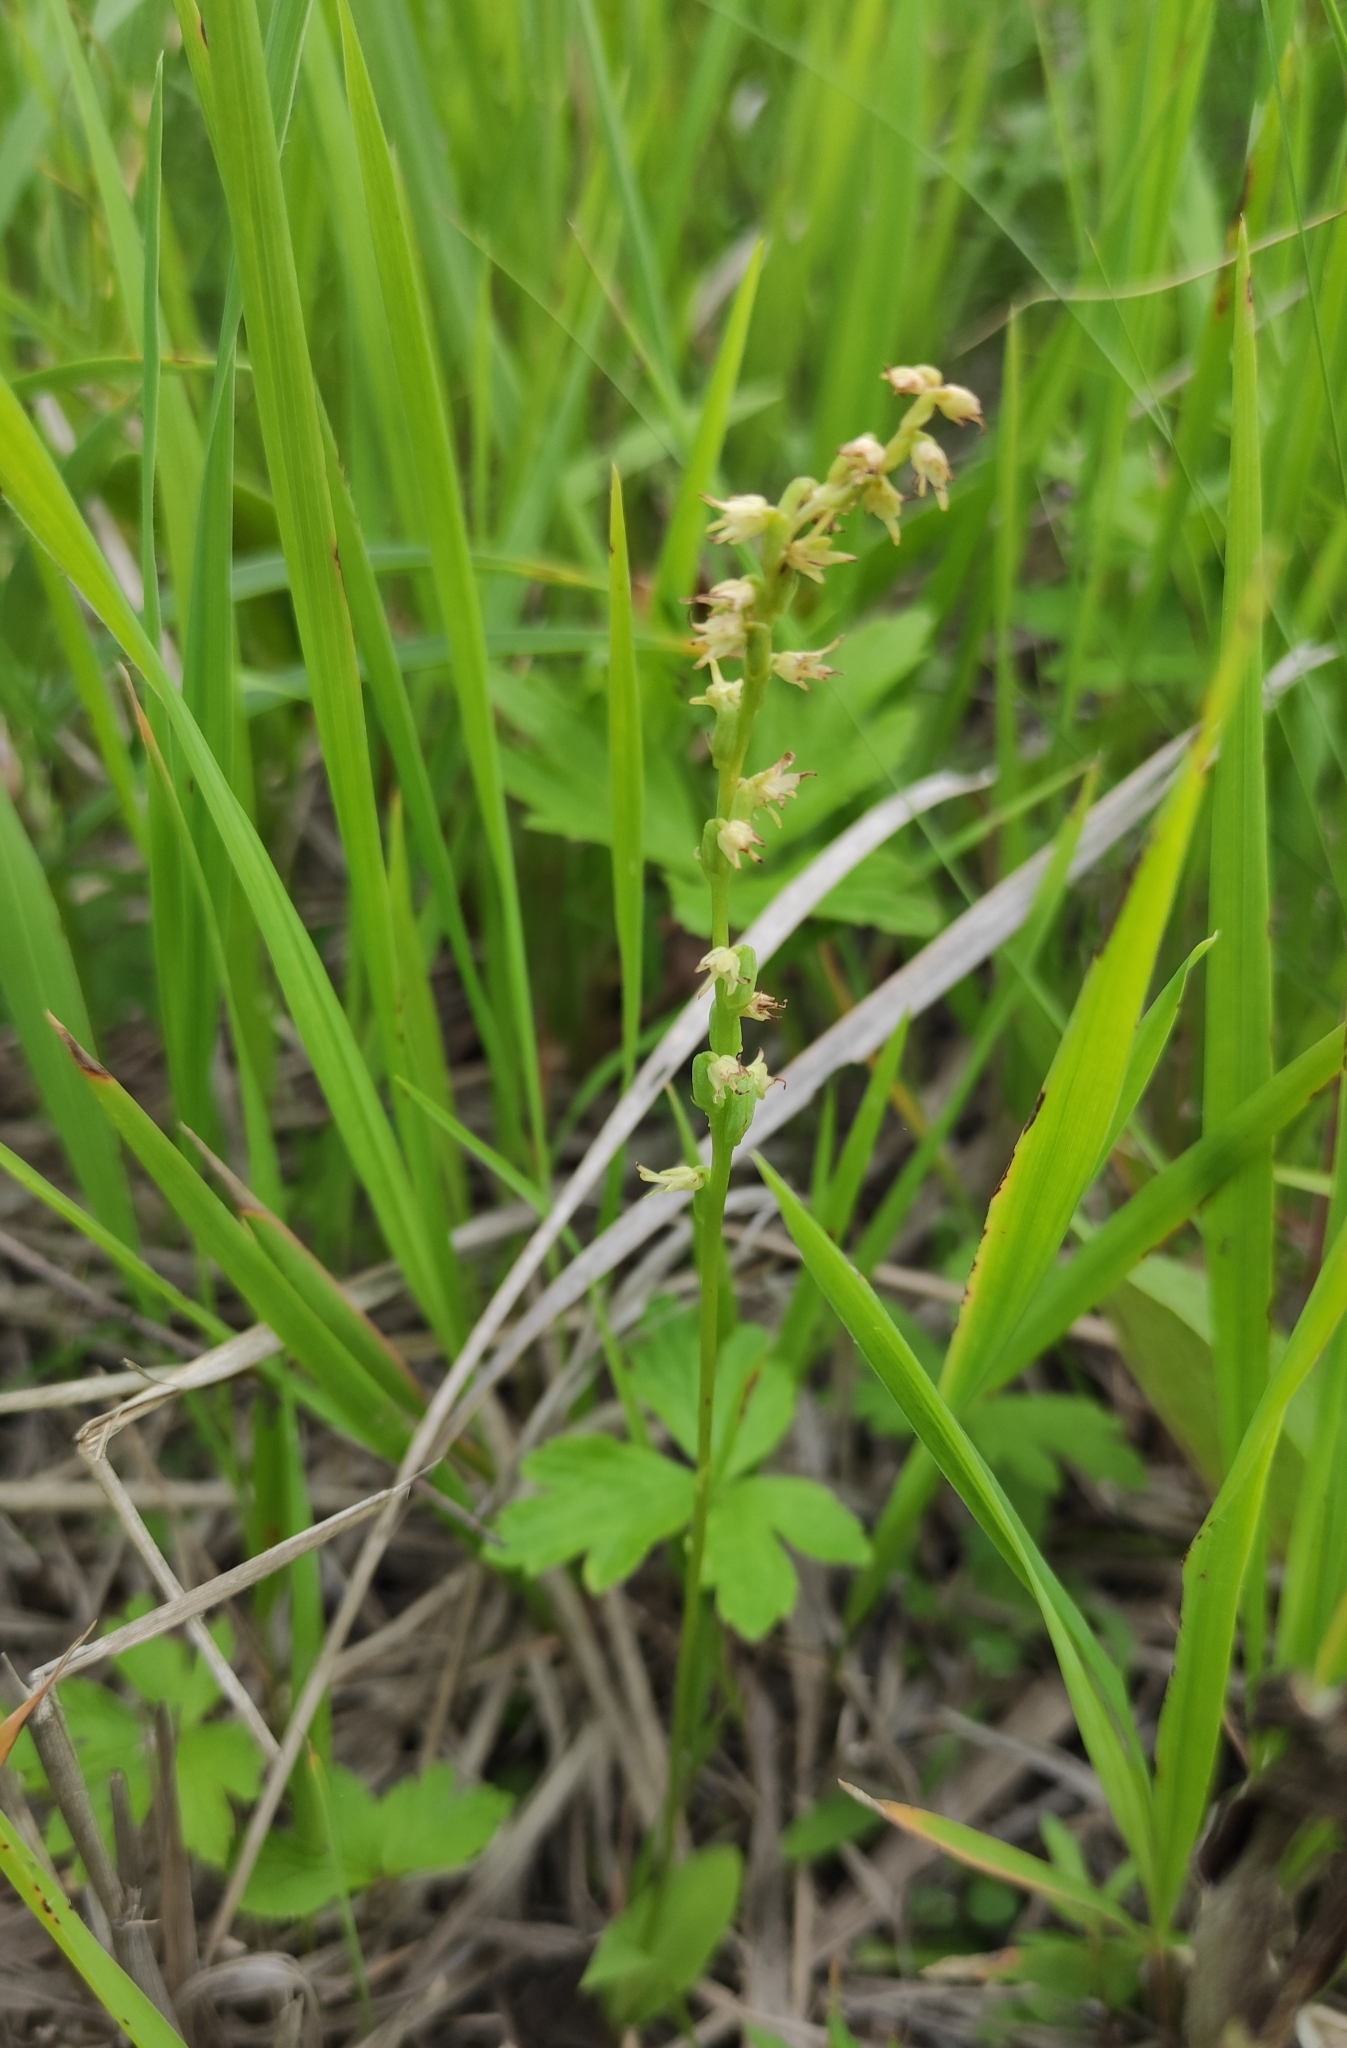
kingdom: Plantae
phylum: Tracheophyta
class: Liliopsida
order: Asparagales
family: Orchidaceae
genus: Herminium
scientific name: Herminium monorchis
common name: Musk orchid
